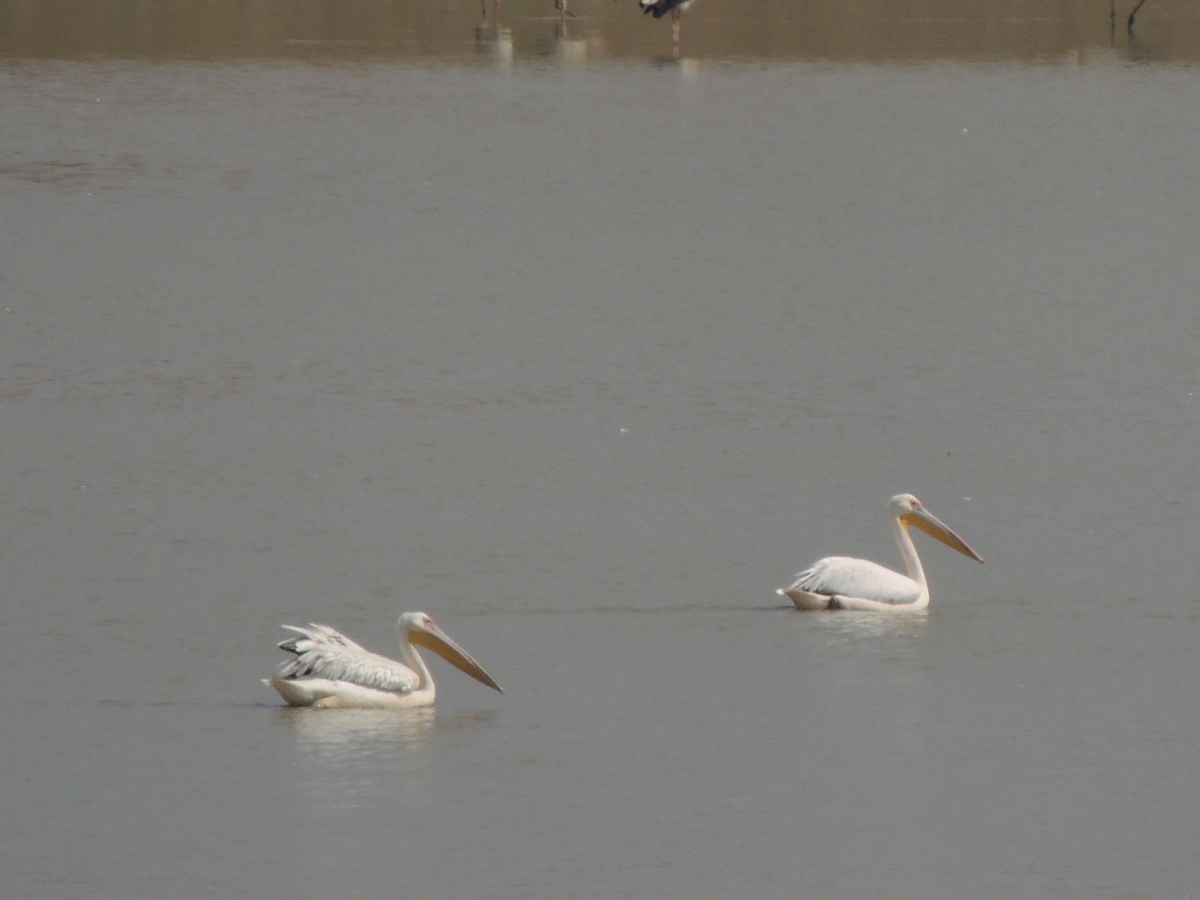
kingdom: Animalia
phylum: Chordata
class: Aves
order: Pelecaniformes
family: Pelecanidae
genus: Pelecanus
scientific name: Pelecanus onocrotalus
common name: Great white pelican
